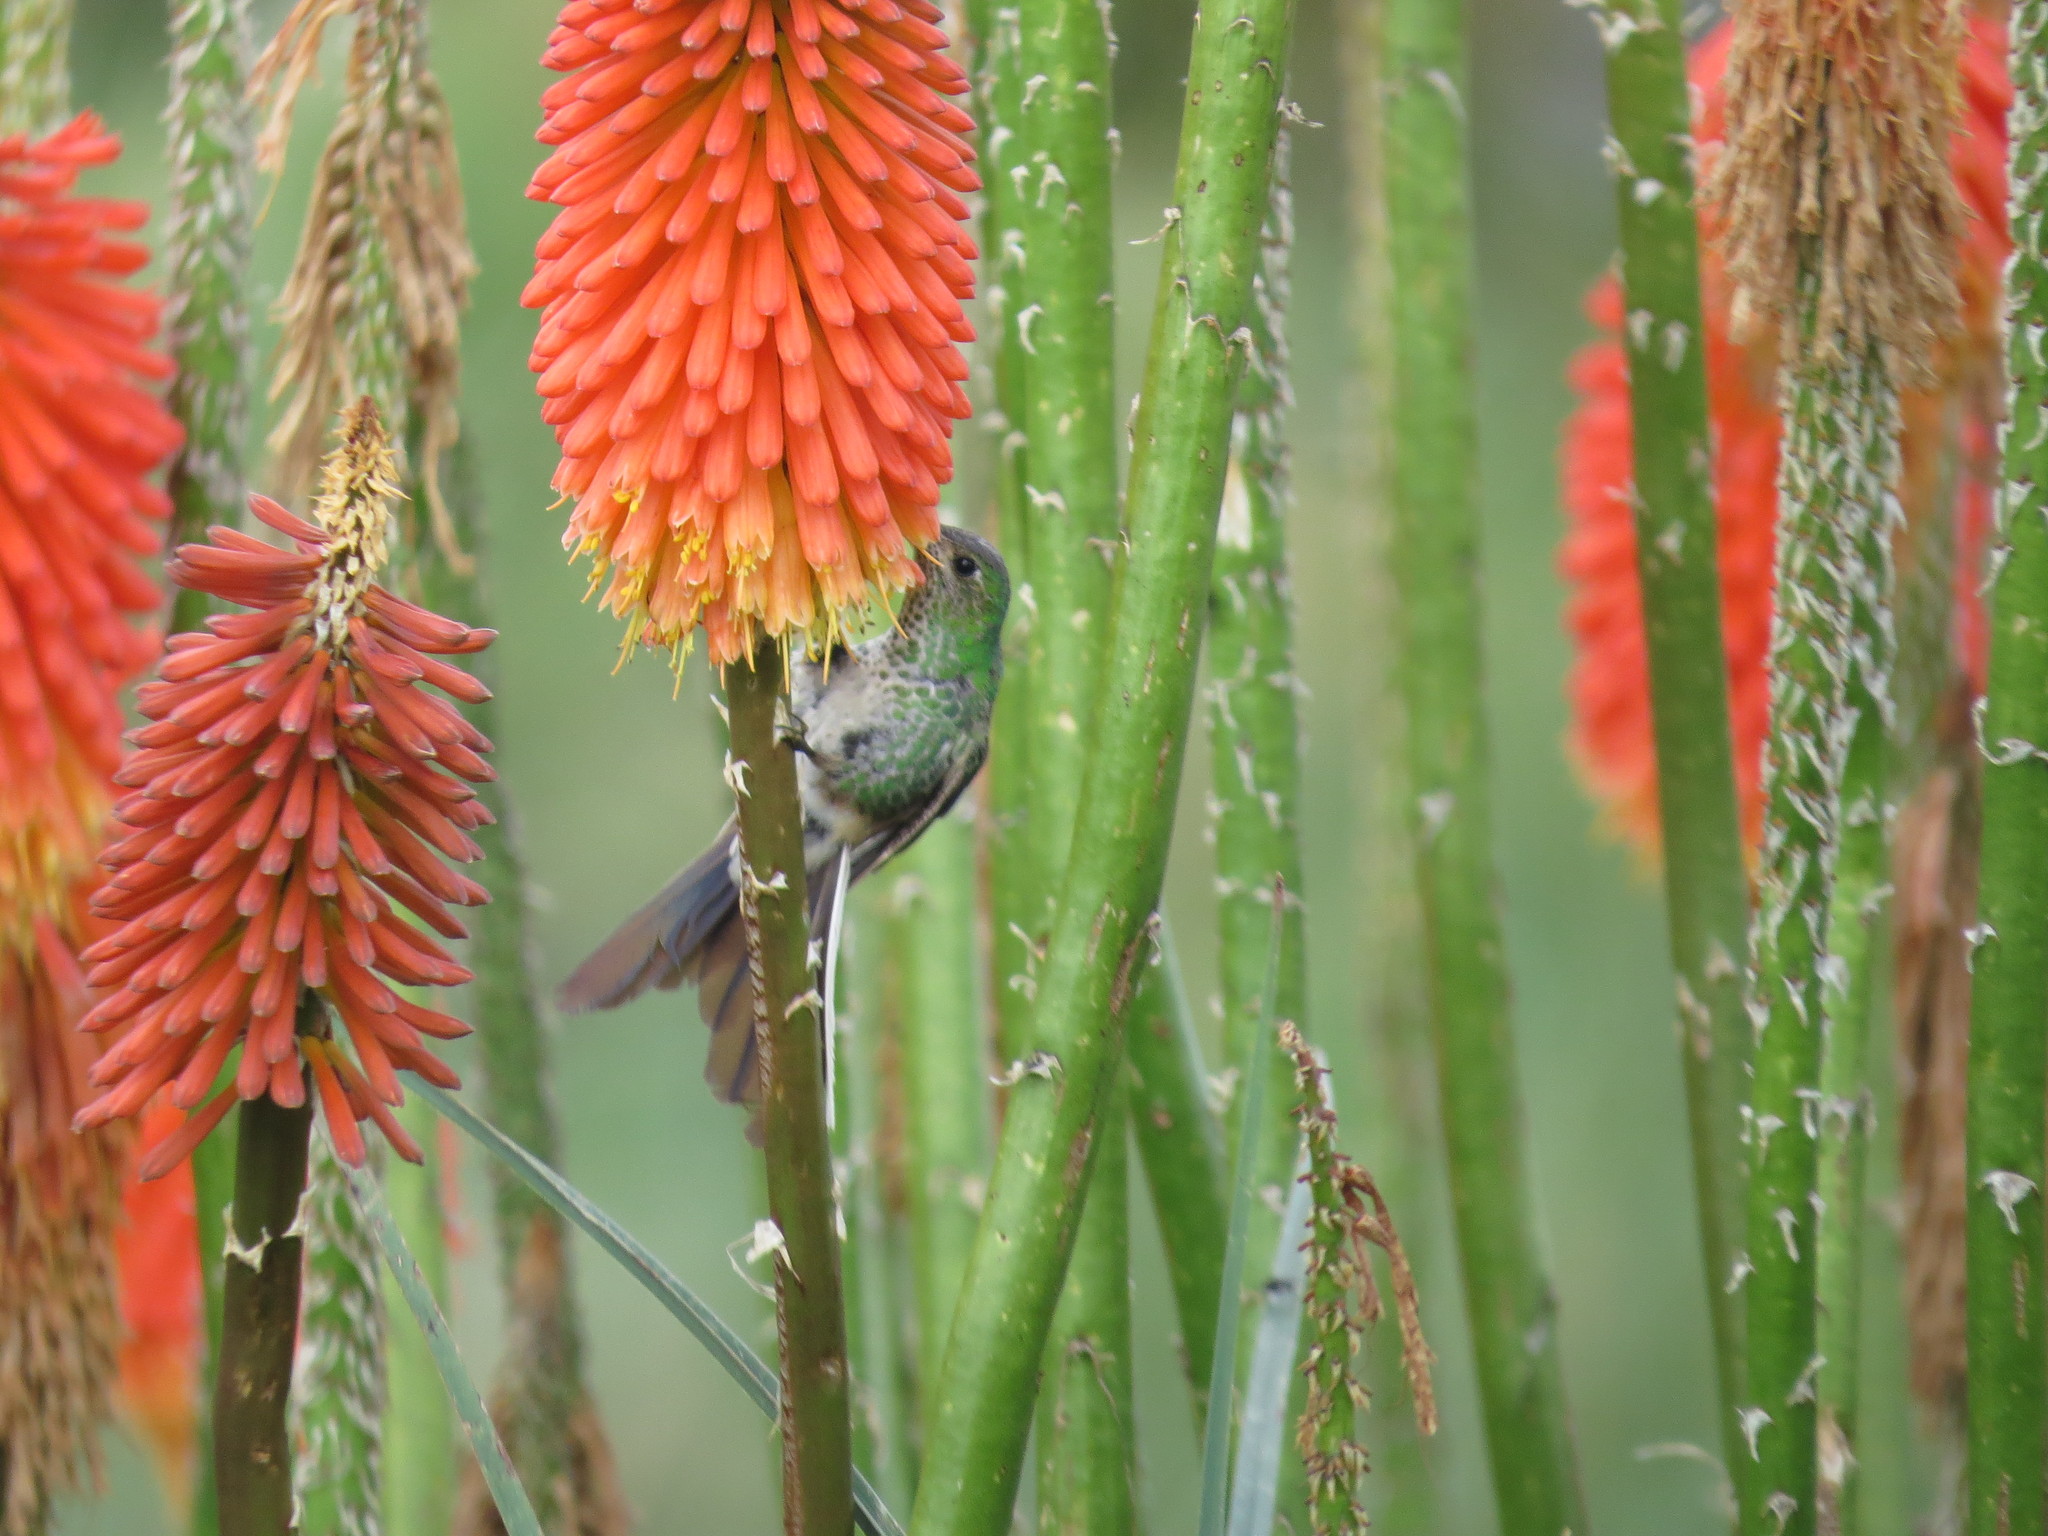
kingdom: Animalia
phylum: Chordata
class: Aves
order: Apodiformes
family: Trochilidae
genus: Sappho
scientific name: Sappho sparganurus
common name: Red-tailed comet
